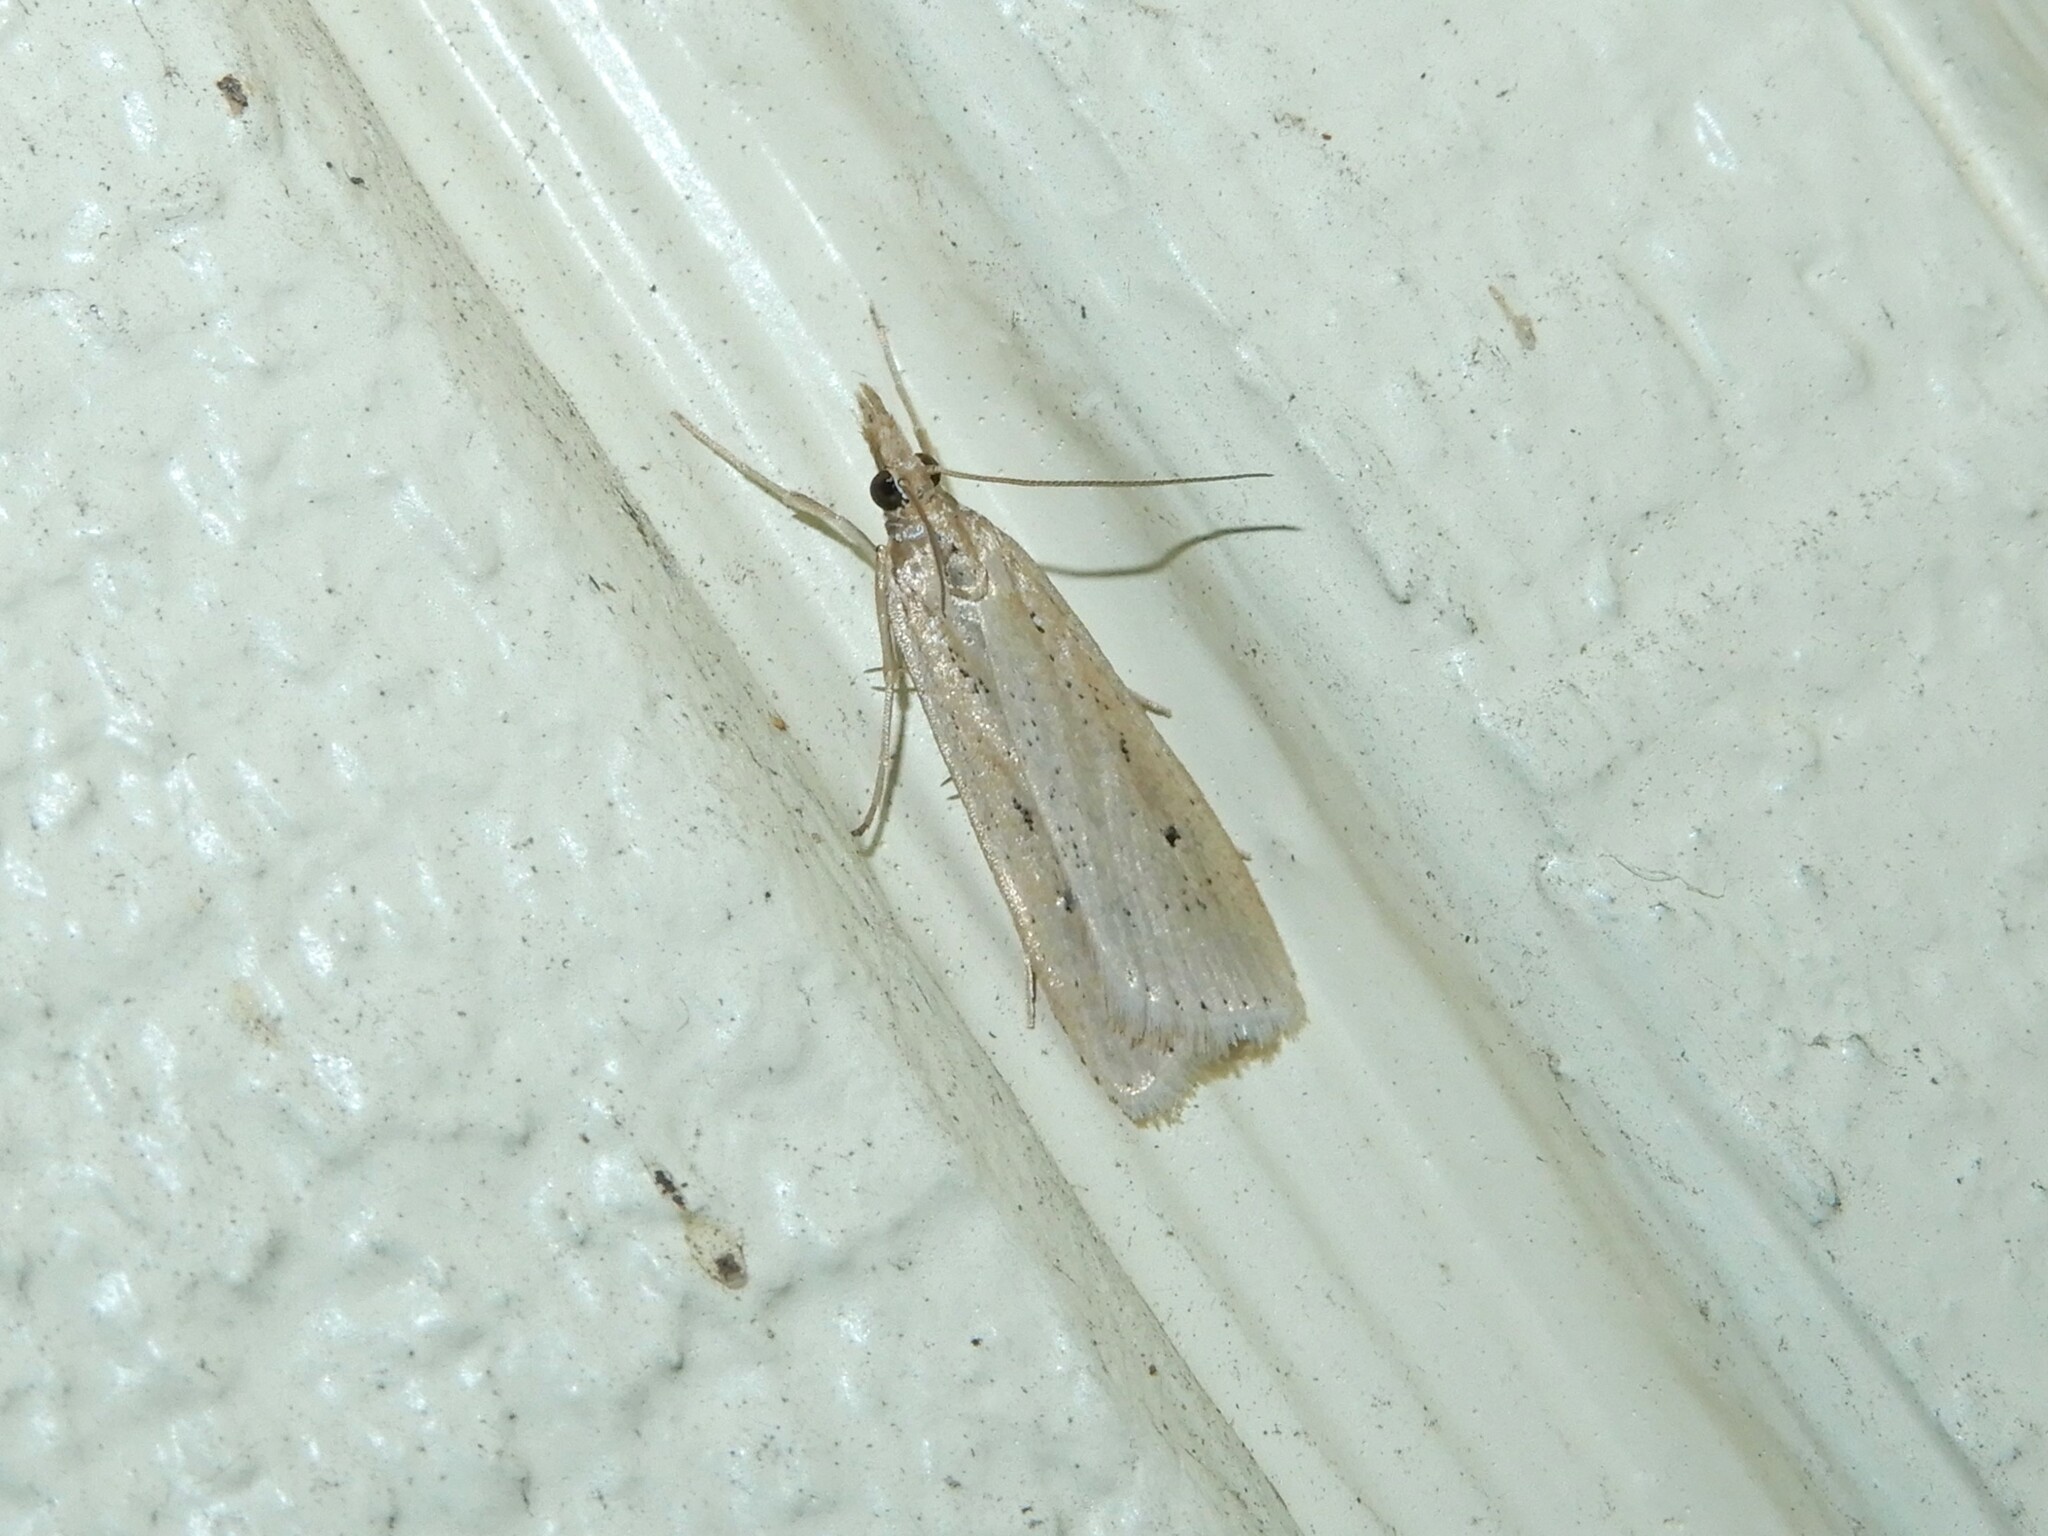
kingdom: Animalia
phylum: Arthropoda
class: Insecta
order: Lepidoptera
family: Crambidae
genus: Eudonia
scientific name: Eudonia sabulosella
